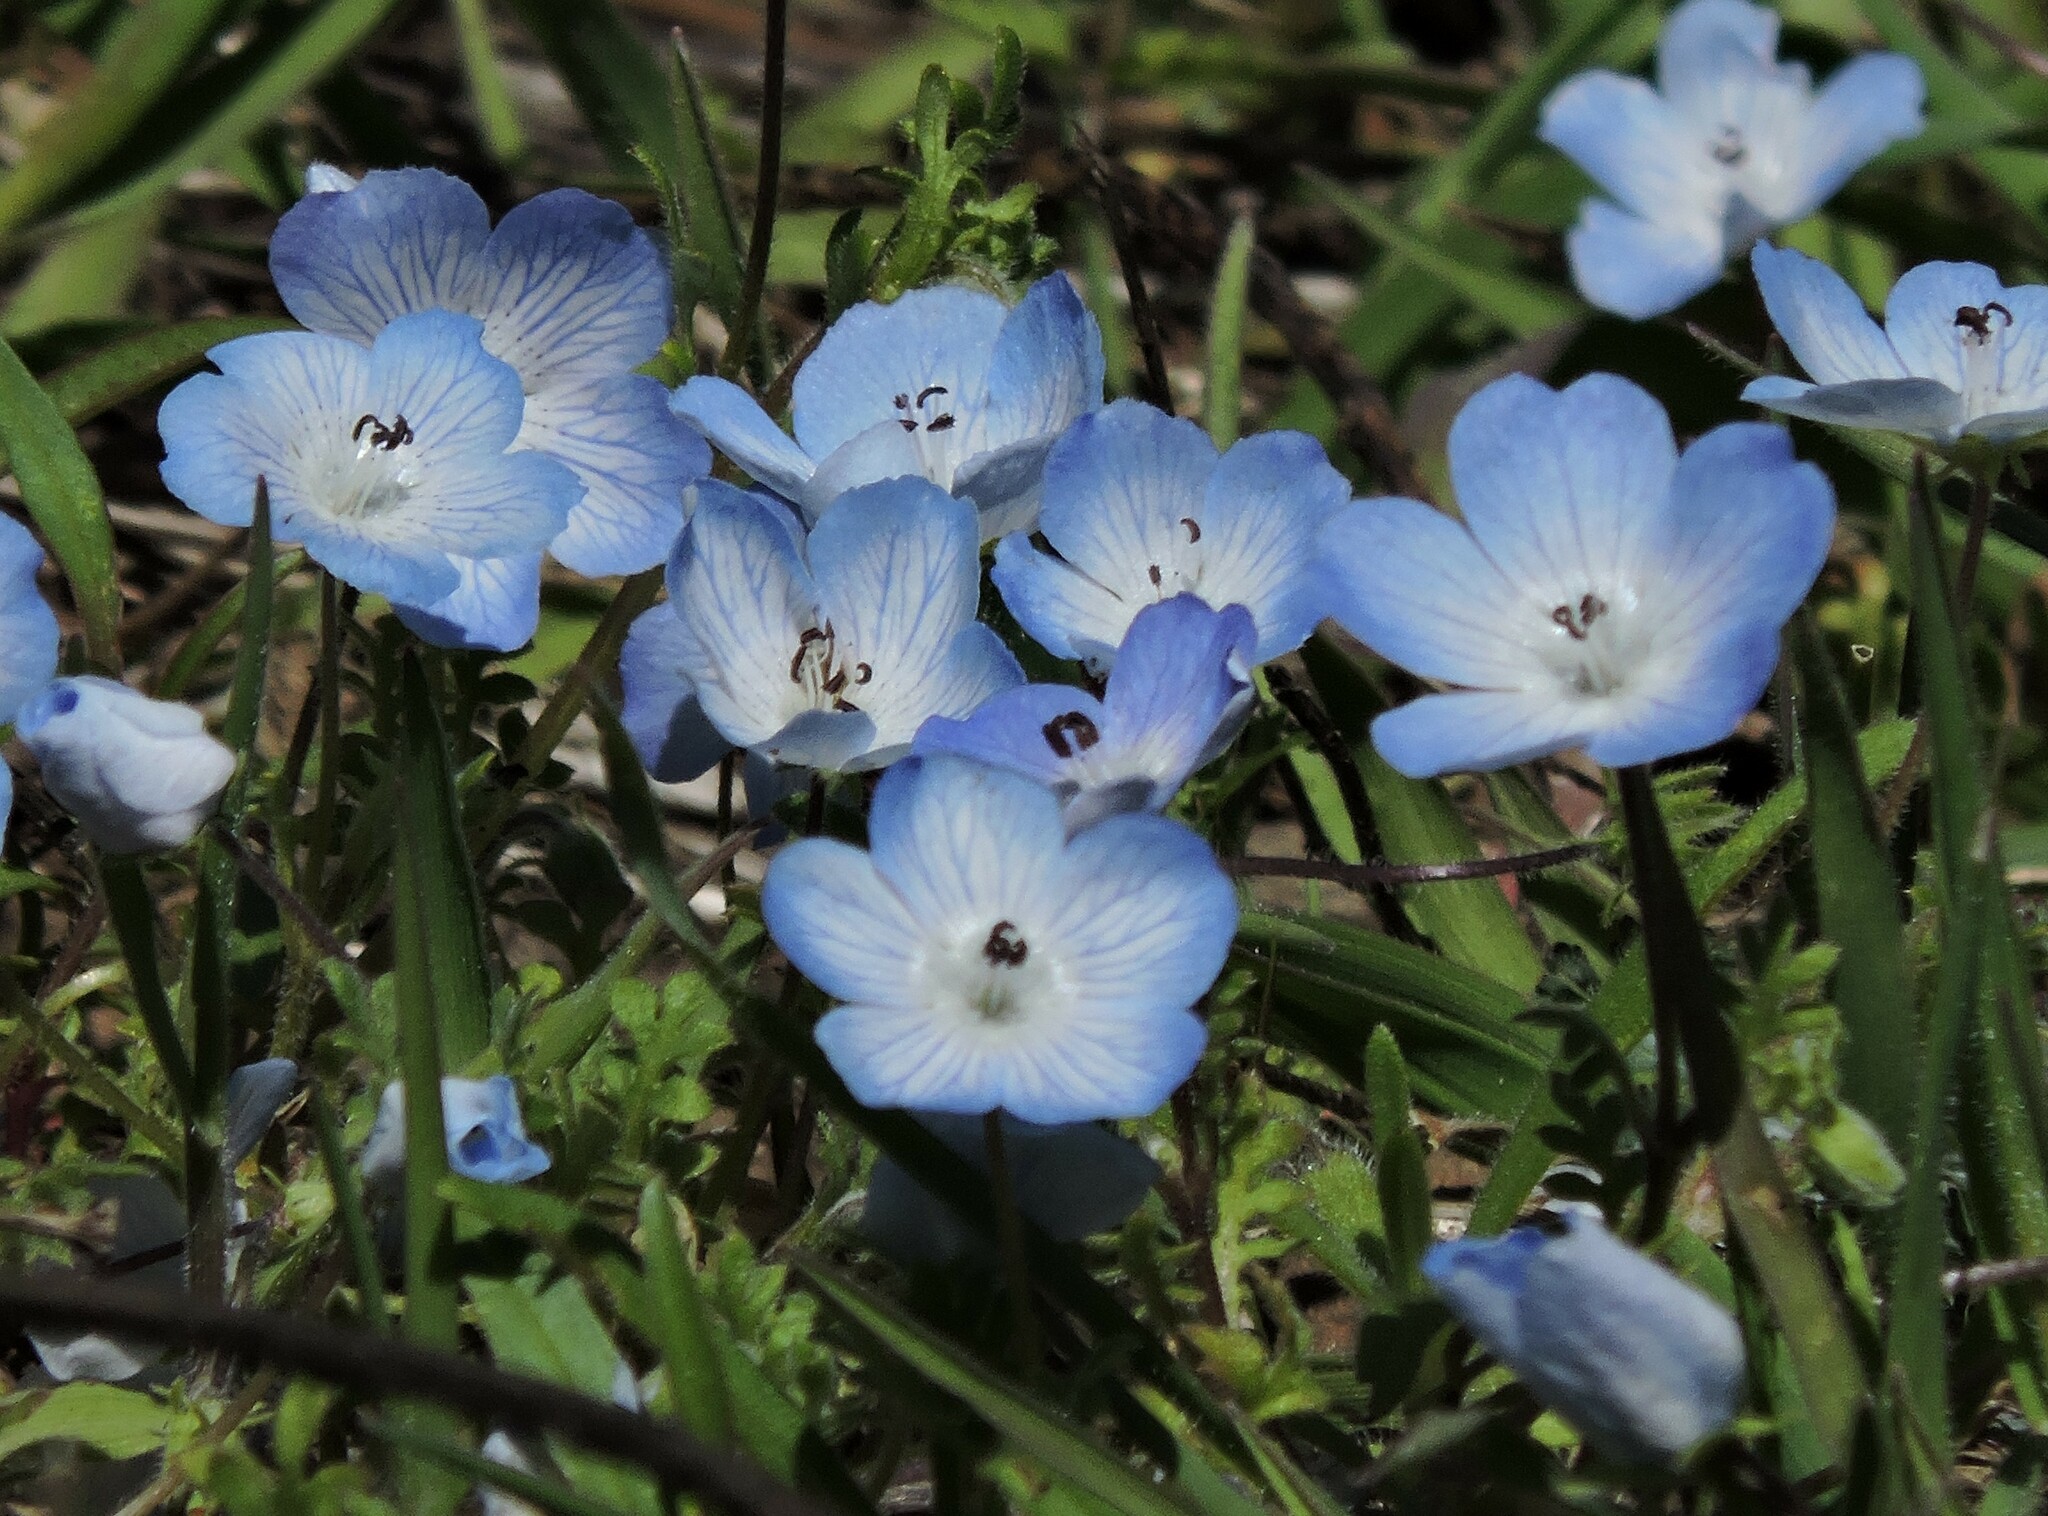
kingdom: Plantae
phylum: Tracheophyta
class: Magnoliopsida
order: Boraginales
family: Hydrophyllaceae
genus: Nemophila
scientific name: Nemophila menziesii
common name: Baby's-blue-eyes
